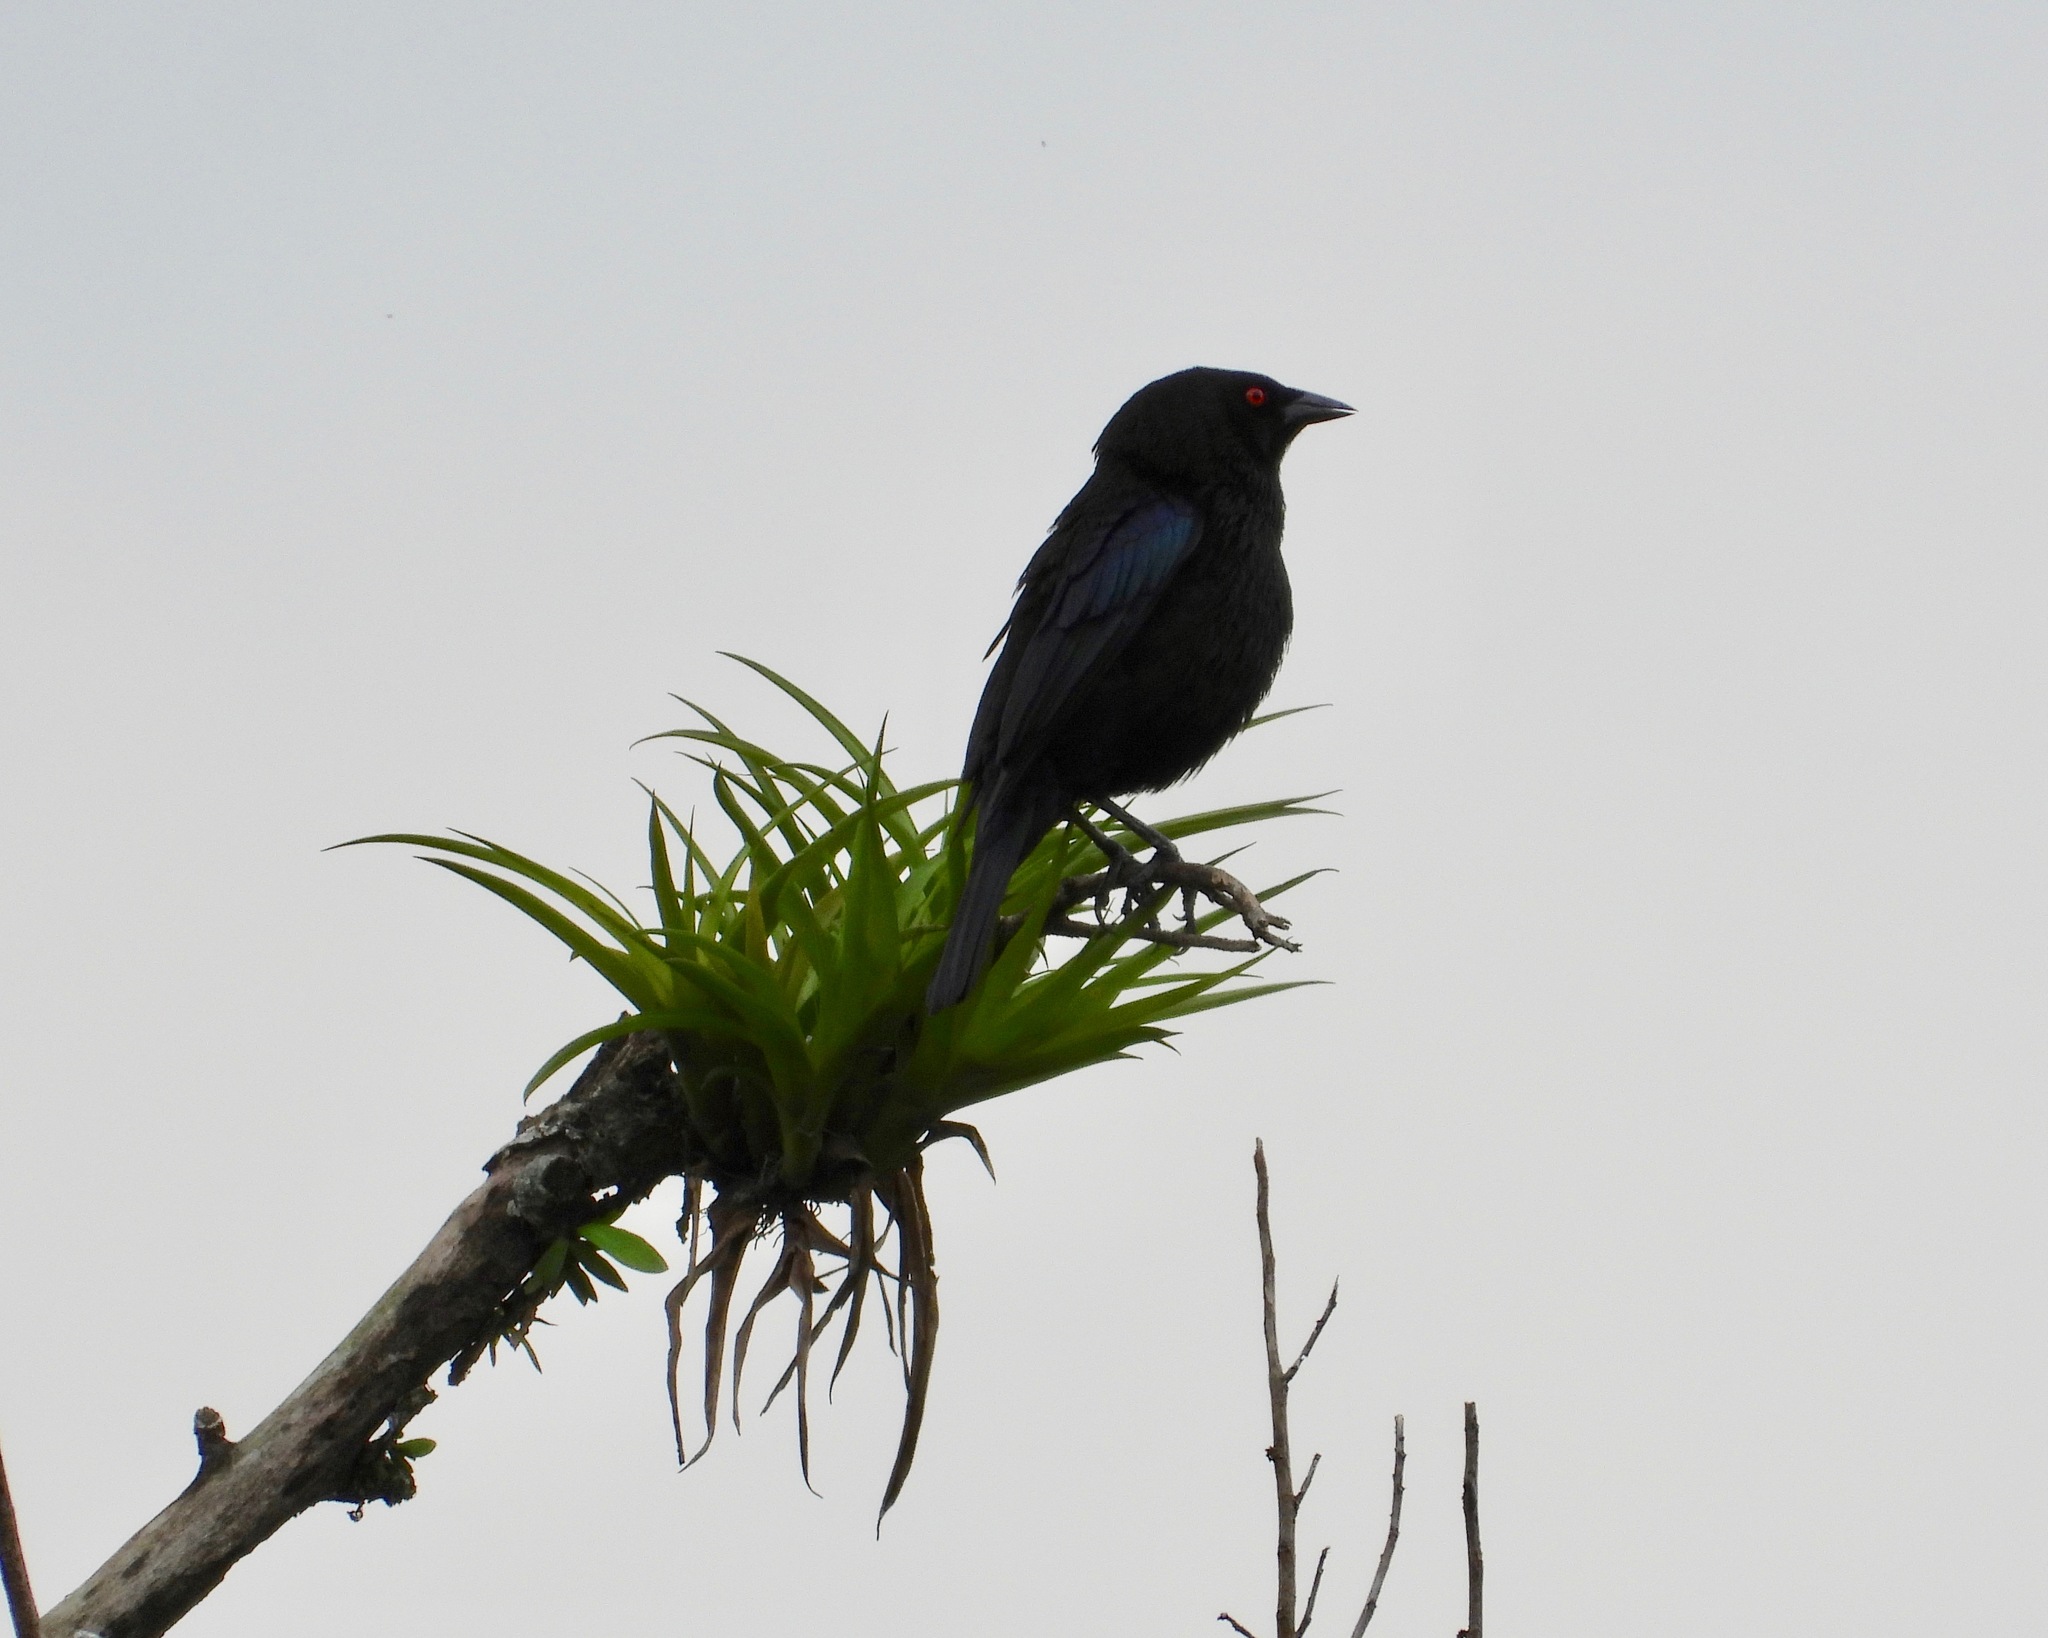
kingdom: Animalia
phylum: Chordata
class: Aves
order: Passeriformes
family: Icteridae
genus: Molothrus
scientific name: Molothrus aeneus
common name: Bronzed cowbird
